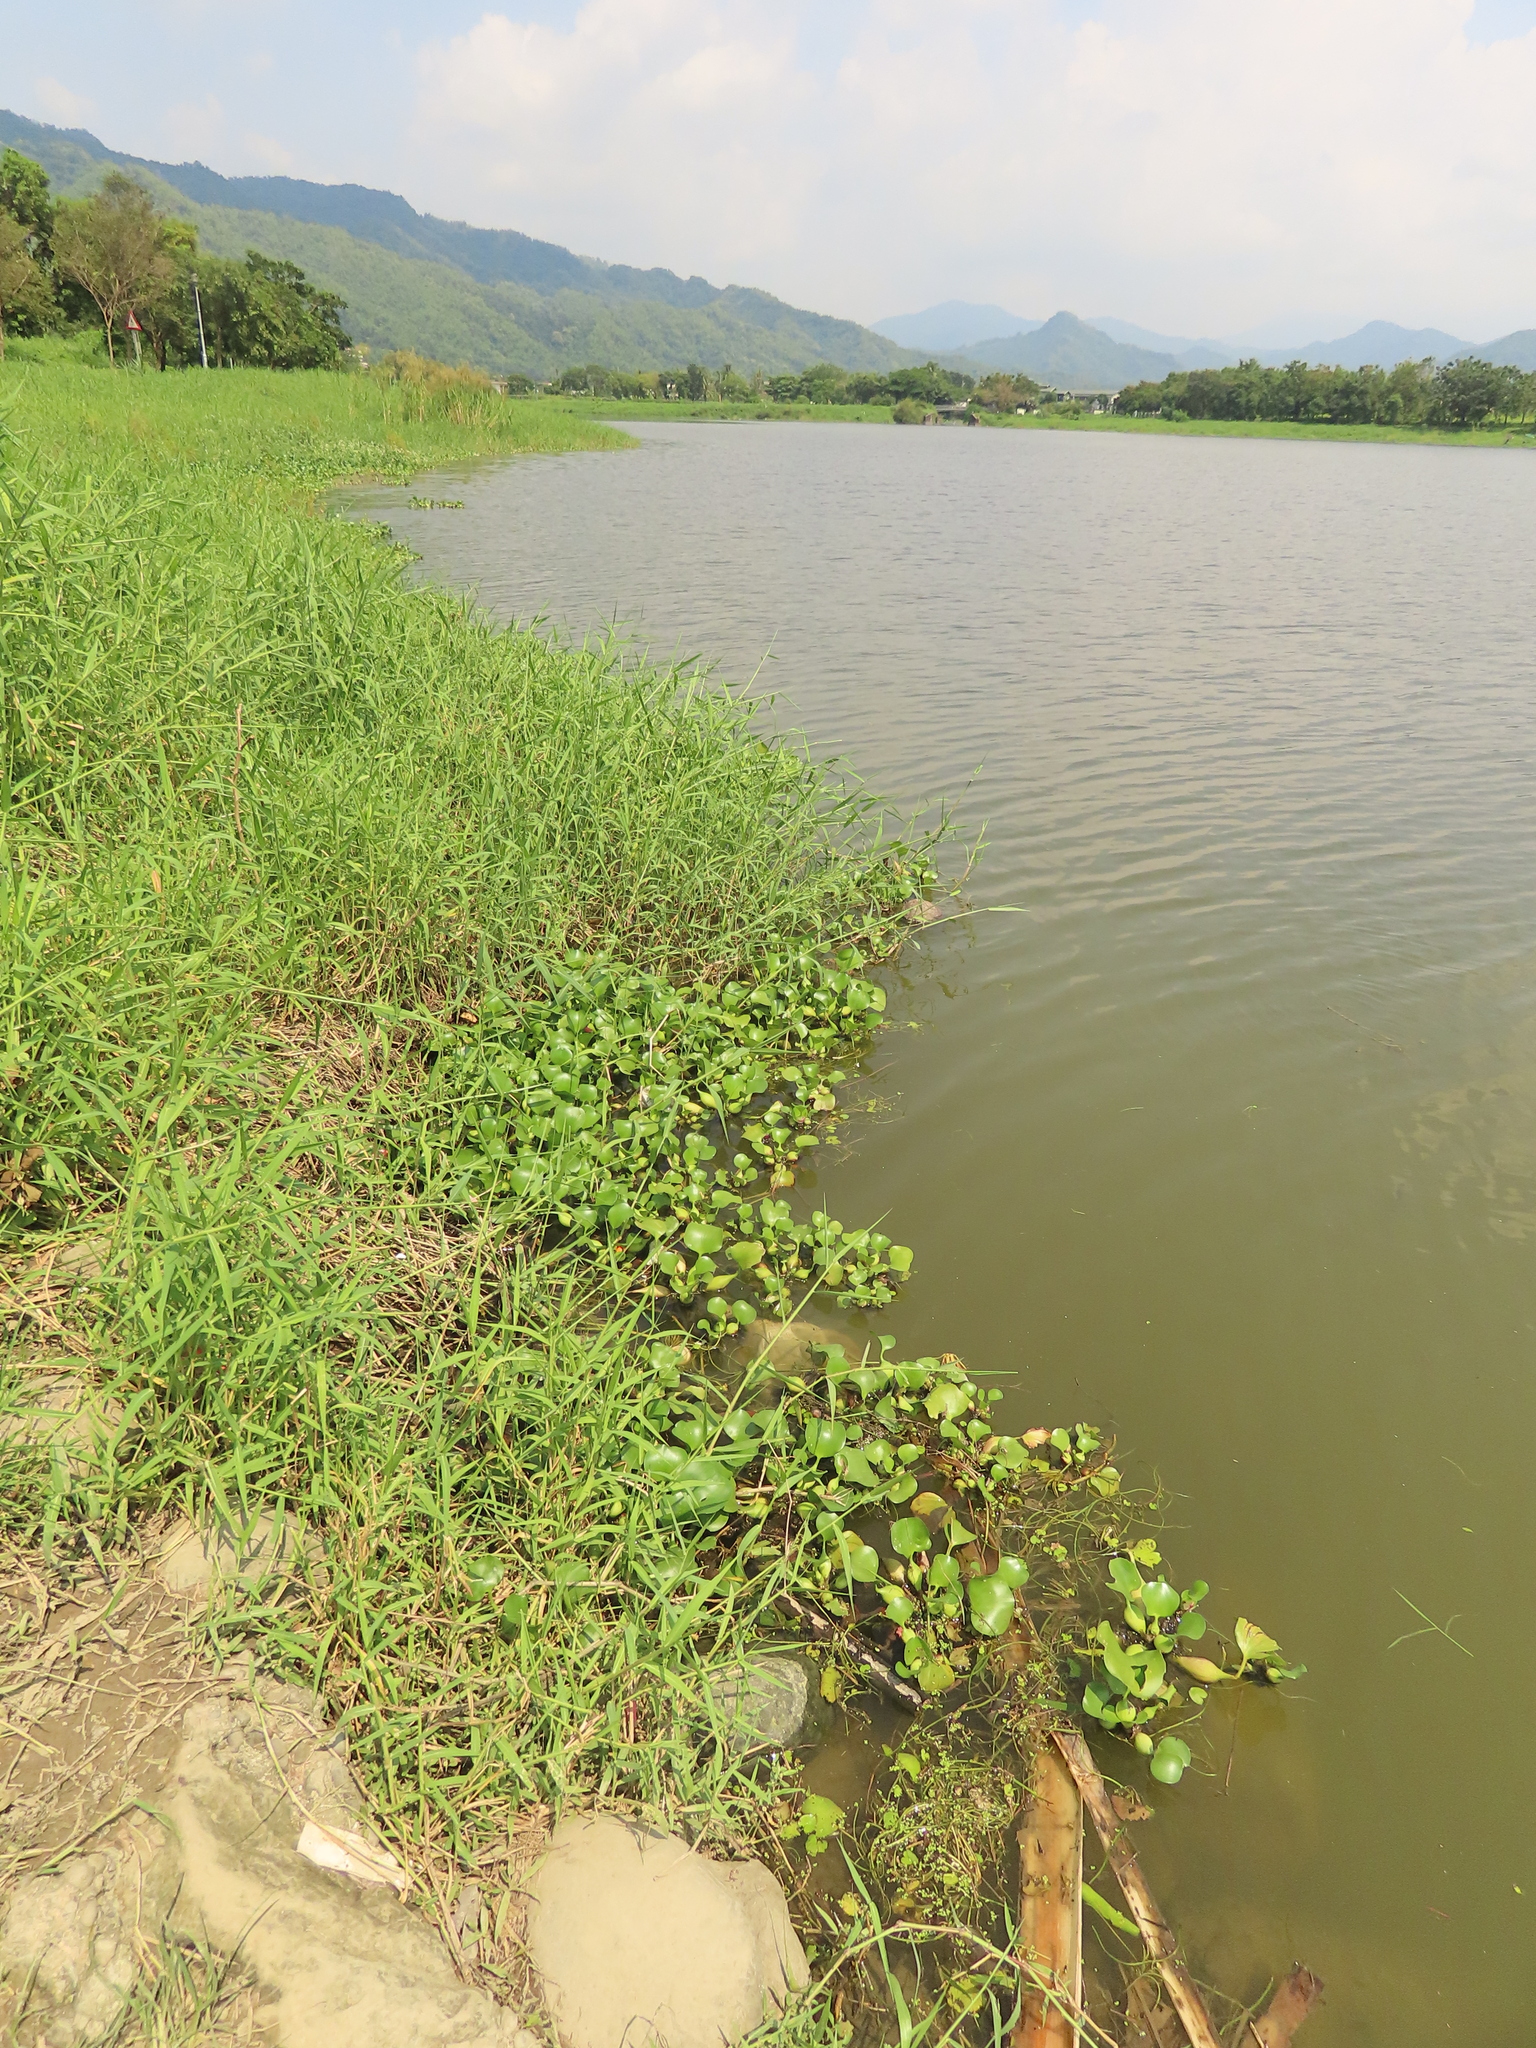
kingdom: Plantae
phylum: Tracheophyta
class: Liliopsida
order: Commelinales
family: Pontederiaceae
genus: Pontederia
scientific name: Pontederia crassipes
